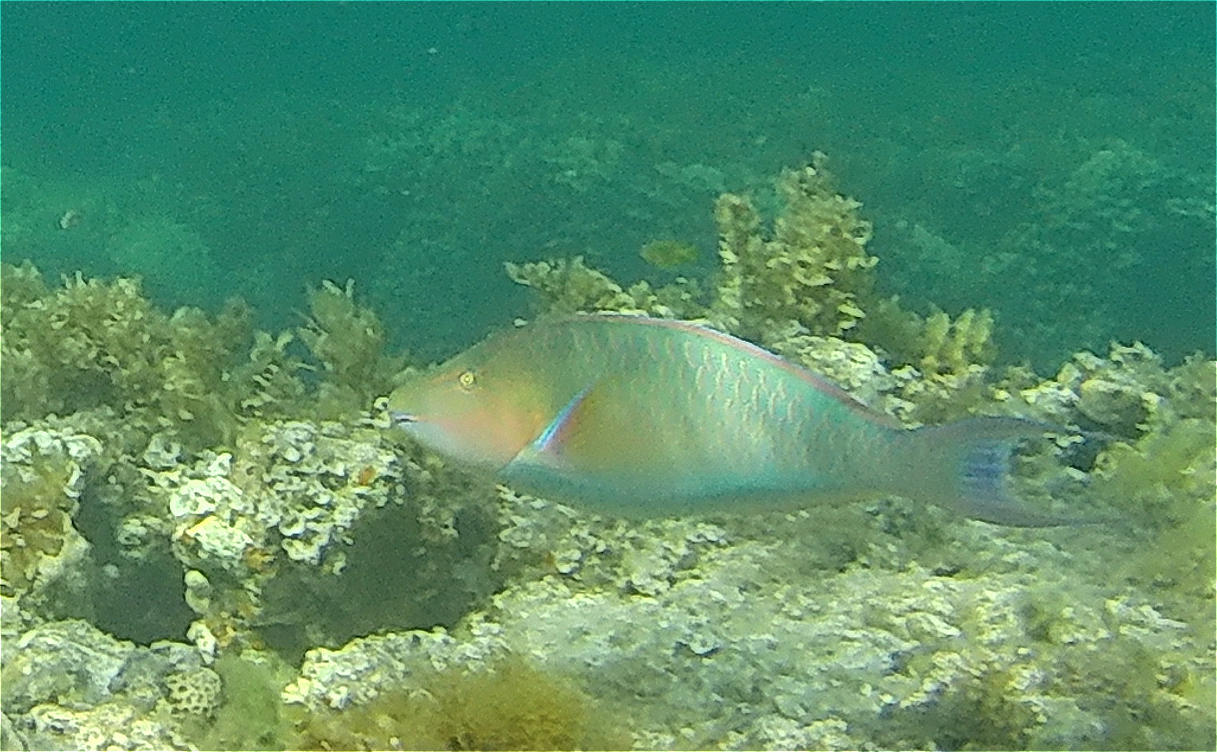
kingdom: Animalia
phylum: Chordata
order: Perciformes
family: Scaridae
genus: Hipposcarus
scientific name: Hipposcarus harid
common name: Candelamoa parrotfish
